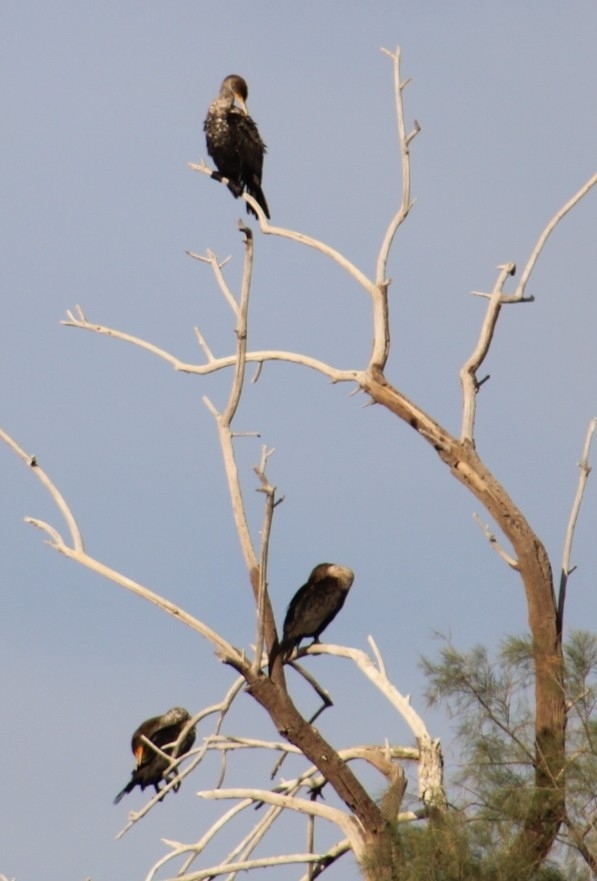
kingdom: Animalia
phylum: Chordata
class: Aves
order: Suliformes
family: Phalacrocoracidae
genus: Phalacrocorax
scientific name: Phalacrocorax auritus
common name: Double-crested cormorant
